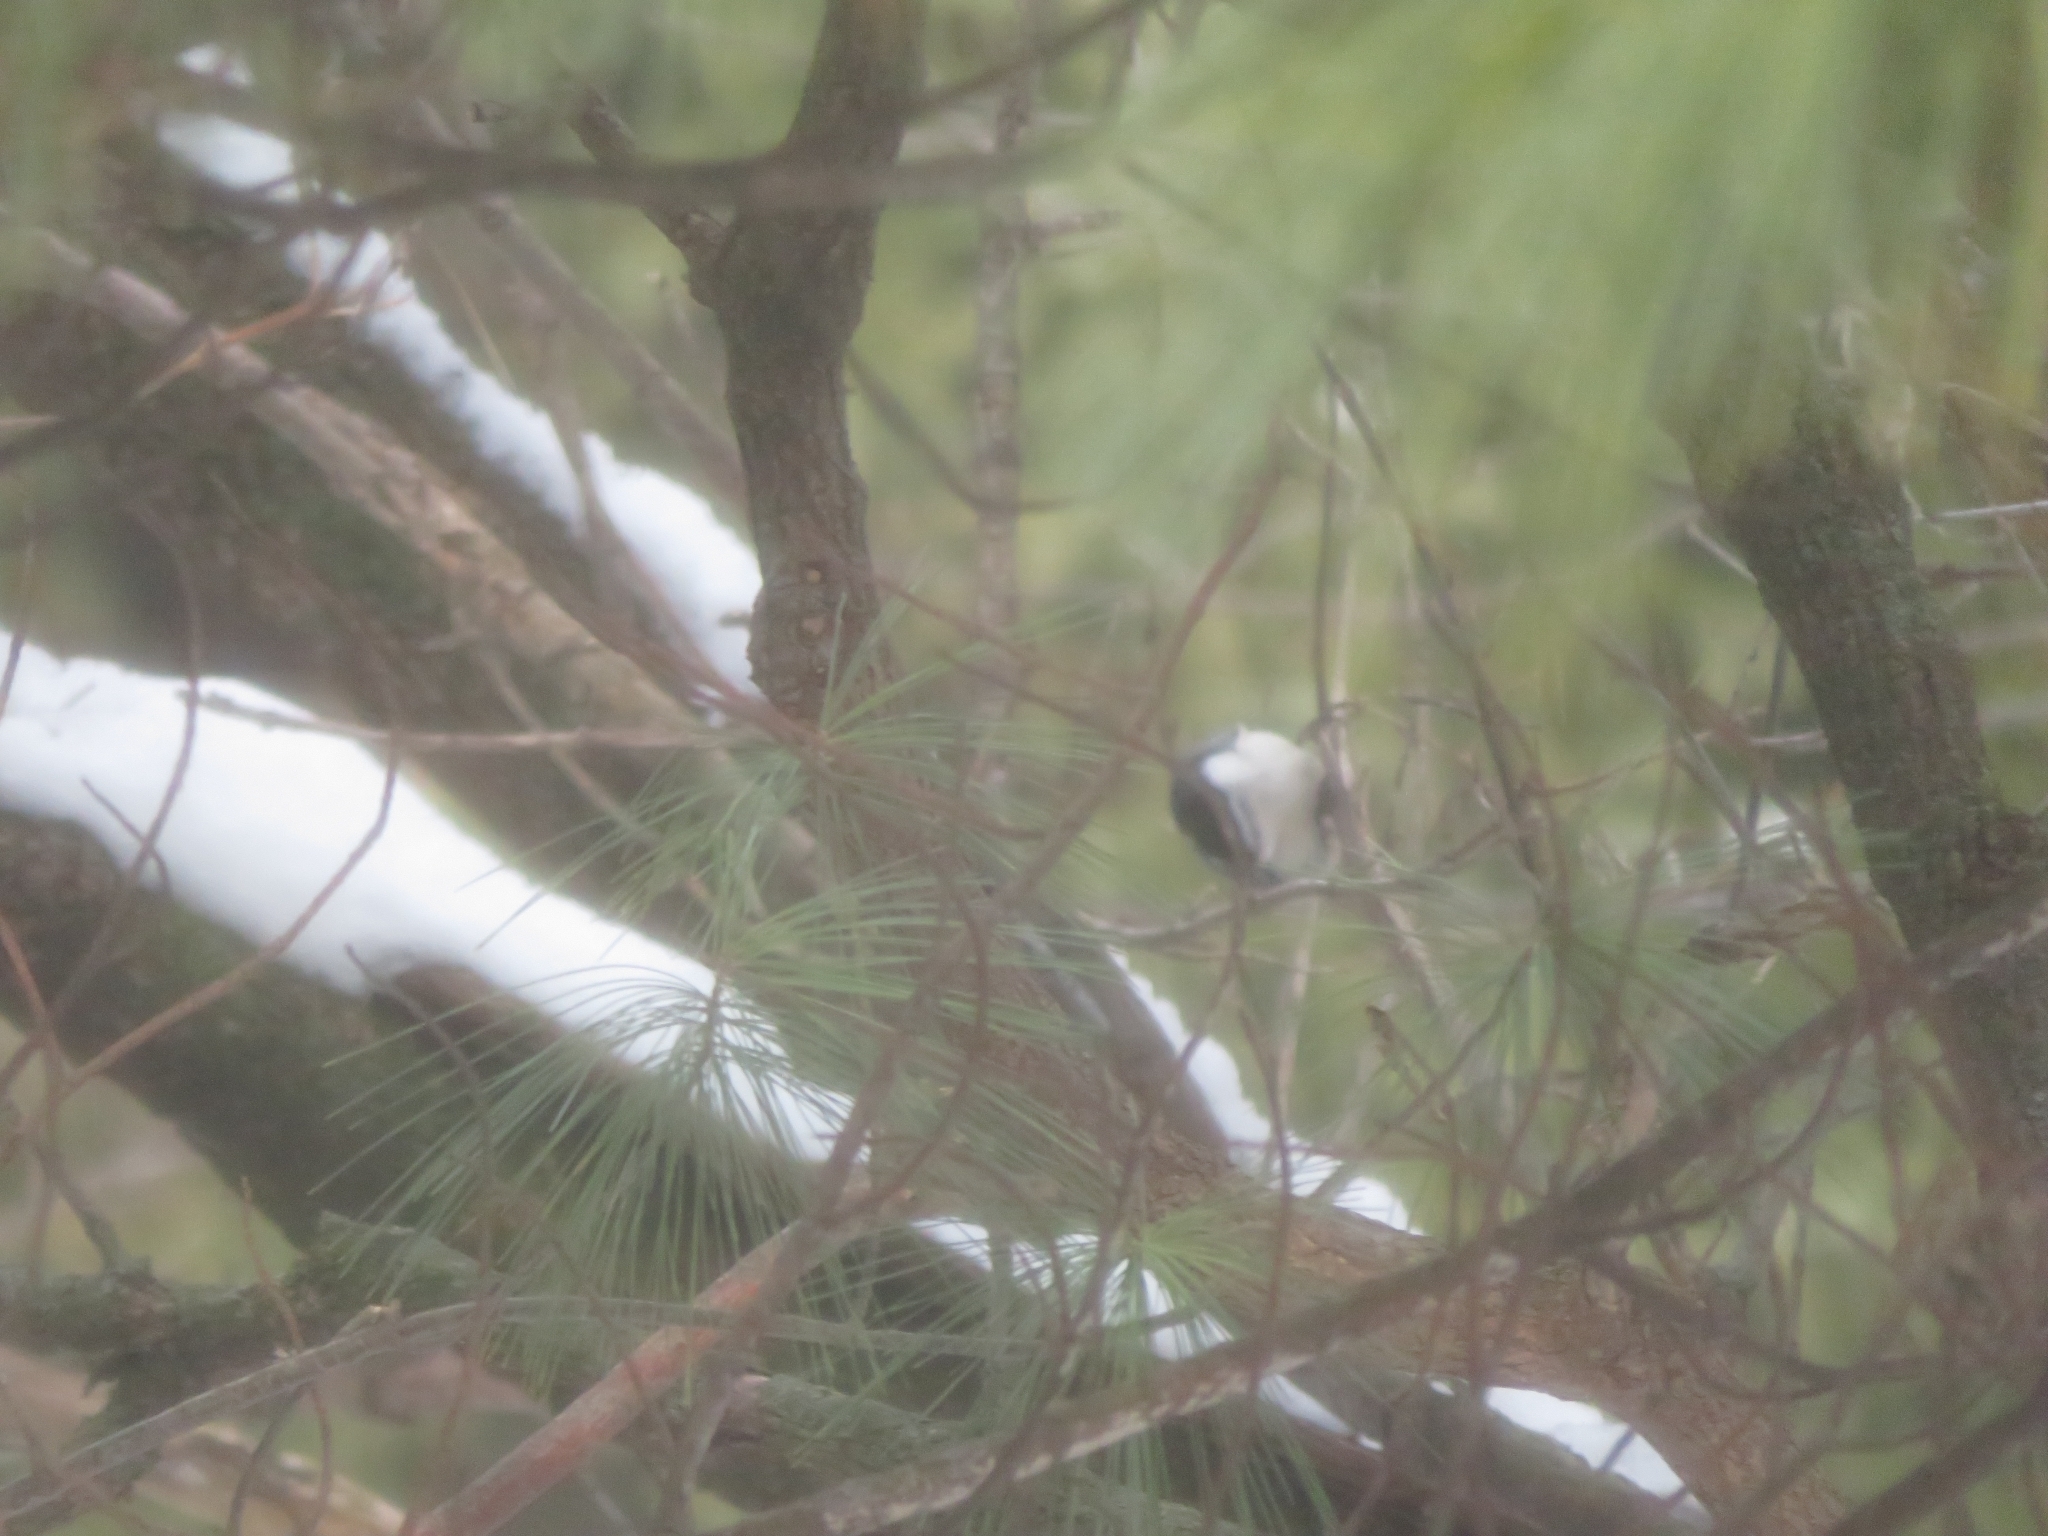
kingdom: Animalia
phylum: Chordata
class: Aves
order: Passeriformes
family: Sittidae
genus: Sitta
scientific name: Sitta carolinensis
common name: White-breasted nuthatch
